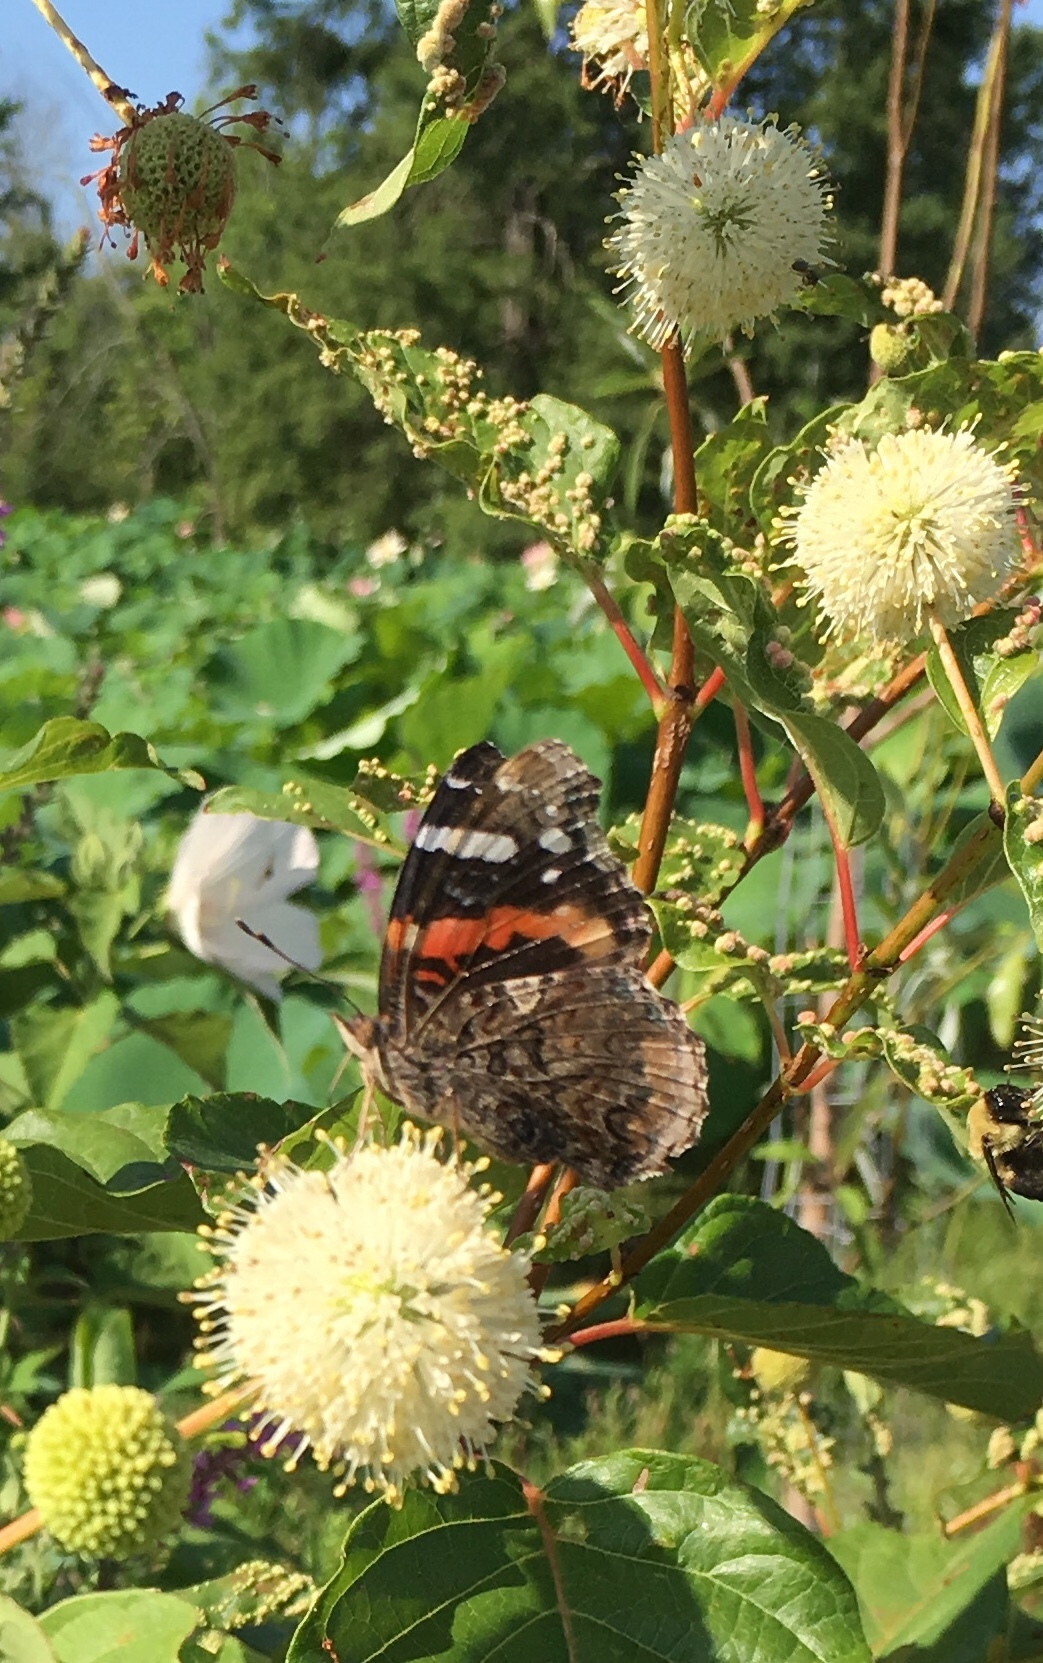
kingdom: Animalia
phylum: Arthropoda
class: Insecta
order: Lepidoptera
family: Nymphalidae
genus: Vanessa
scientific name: Vanessa atalanta
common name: Red admiral
